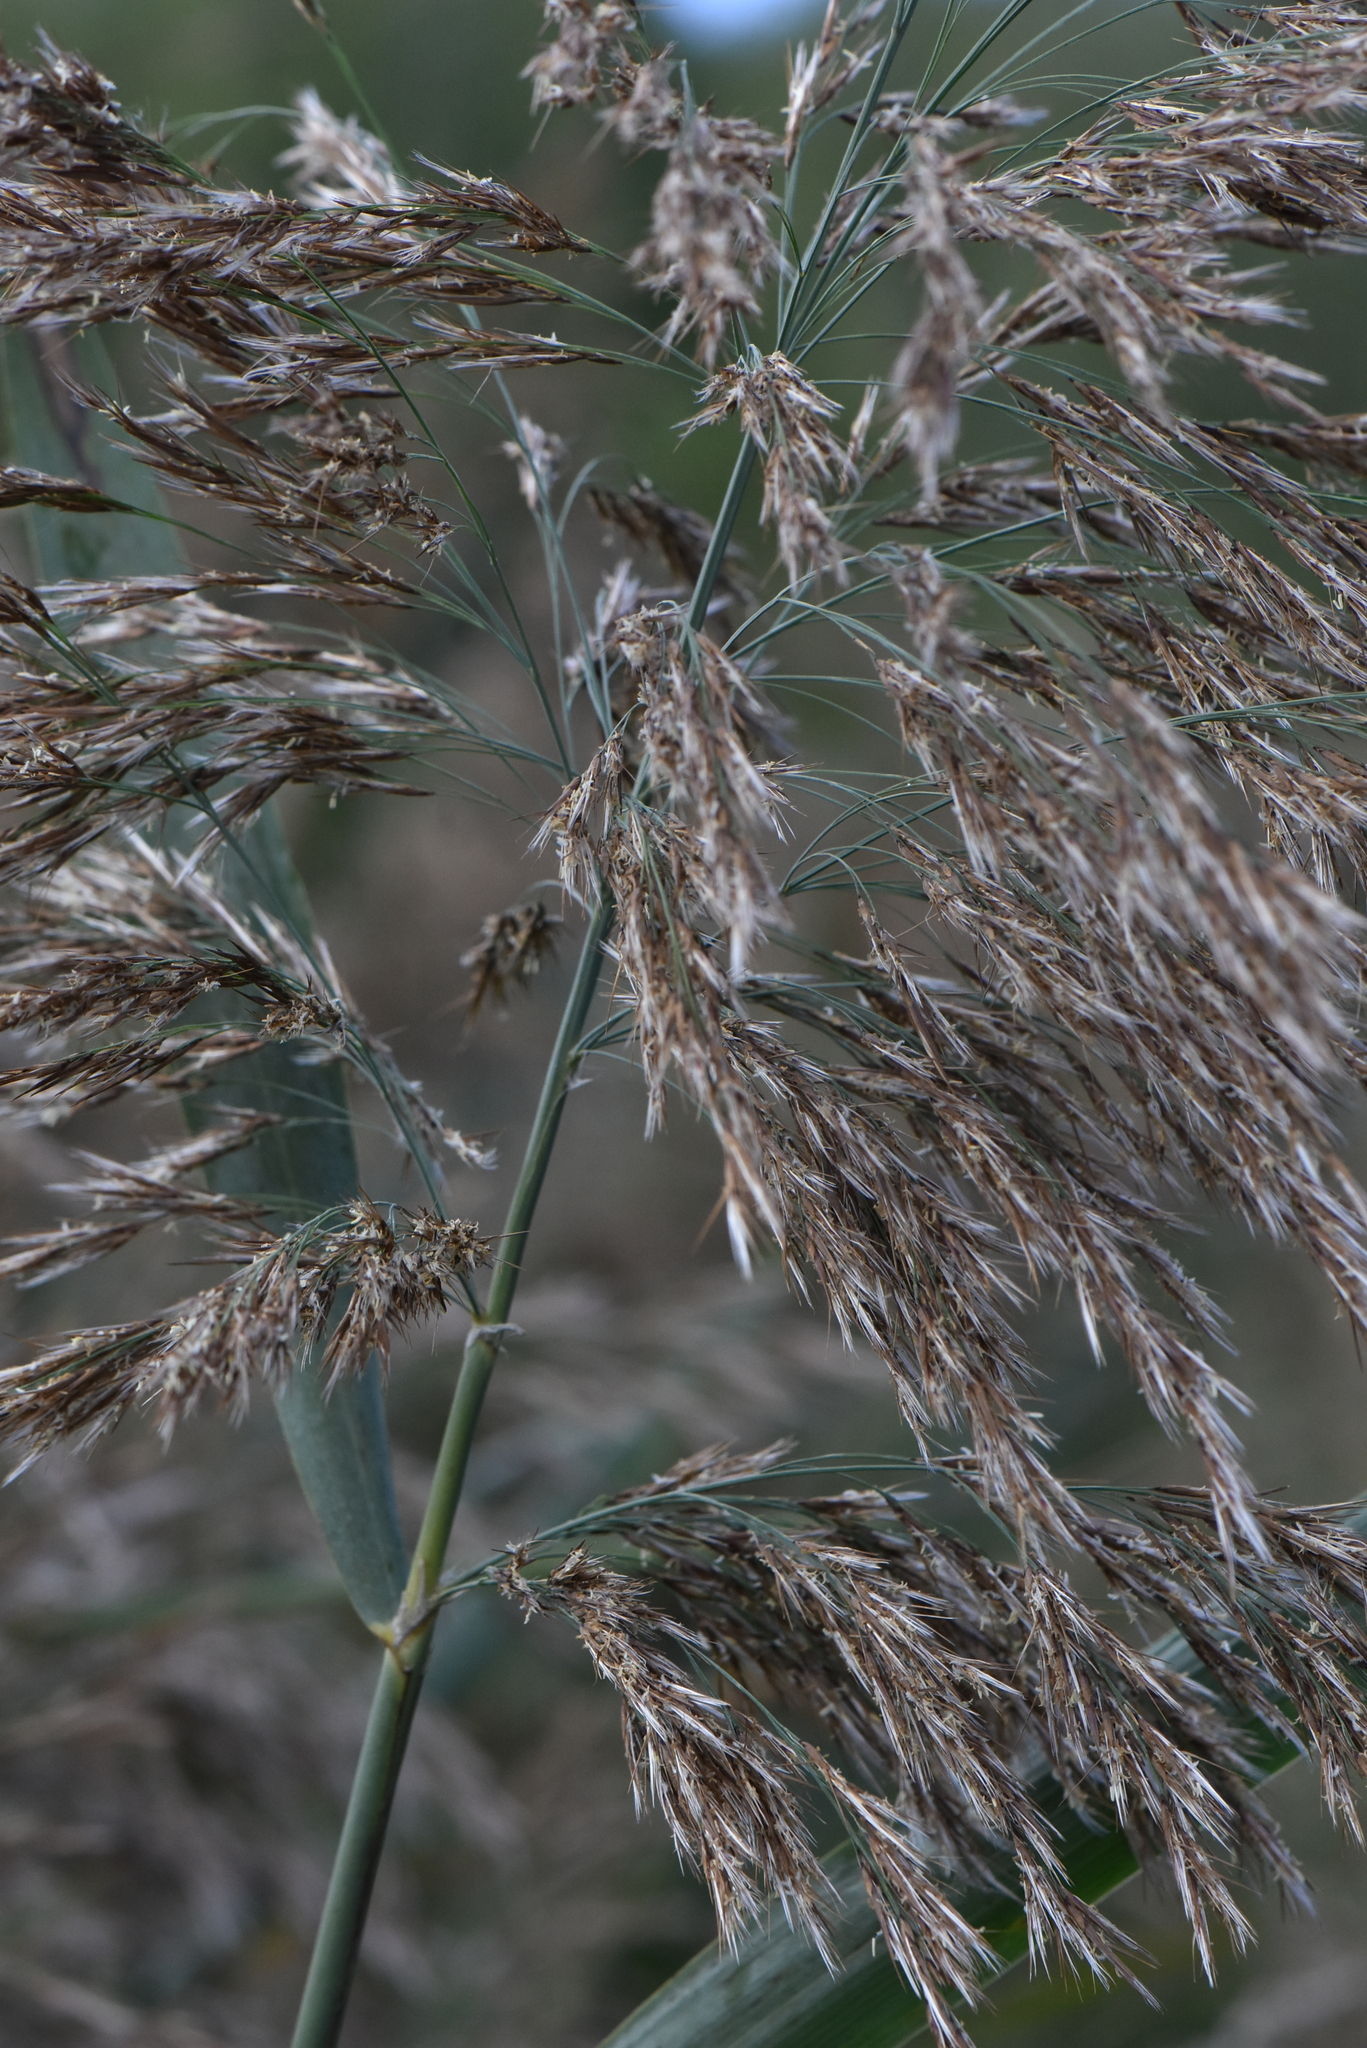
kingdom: Plantae
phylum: Tracheophyta
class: Liliopsida
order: Poales
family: Poaceae
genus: Phragmites
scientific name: Phragmites australis
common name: Common reed
